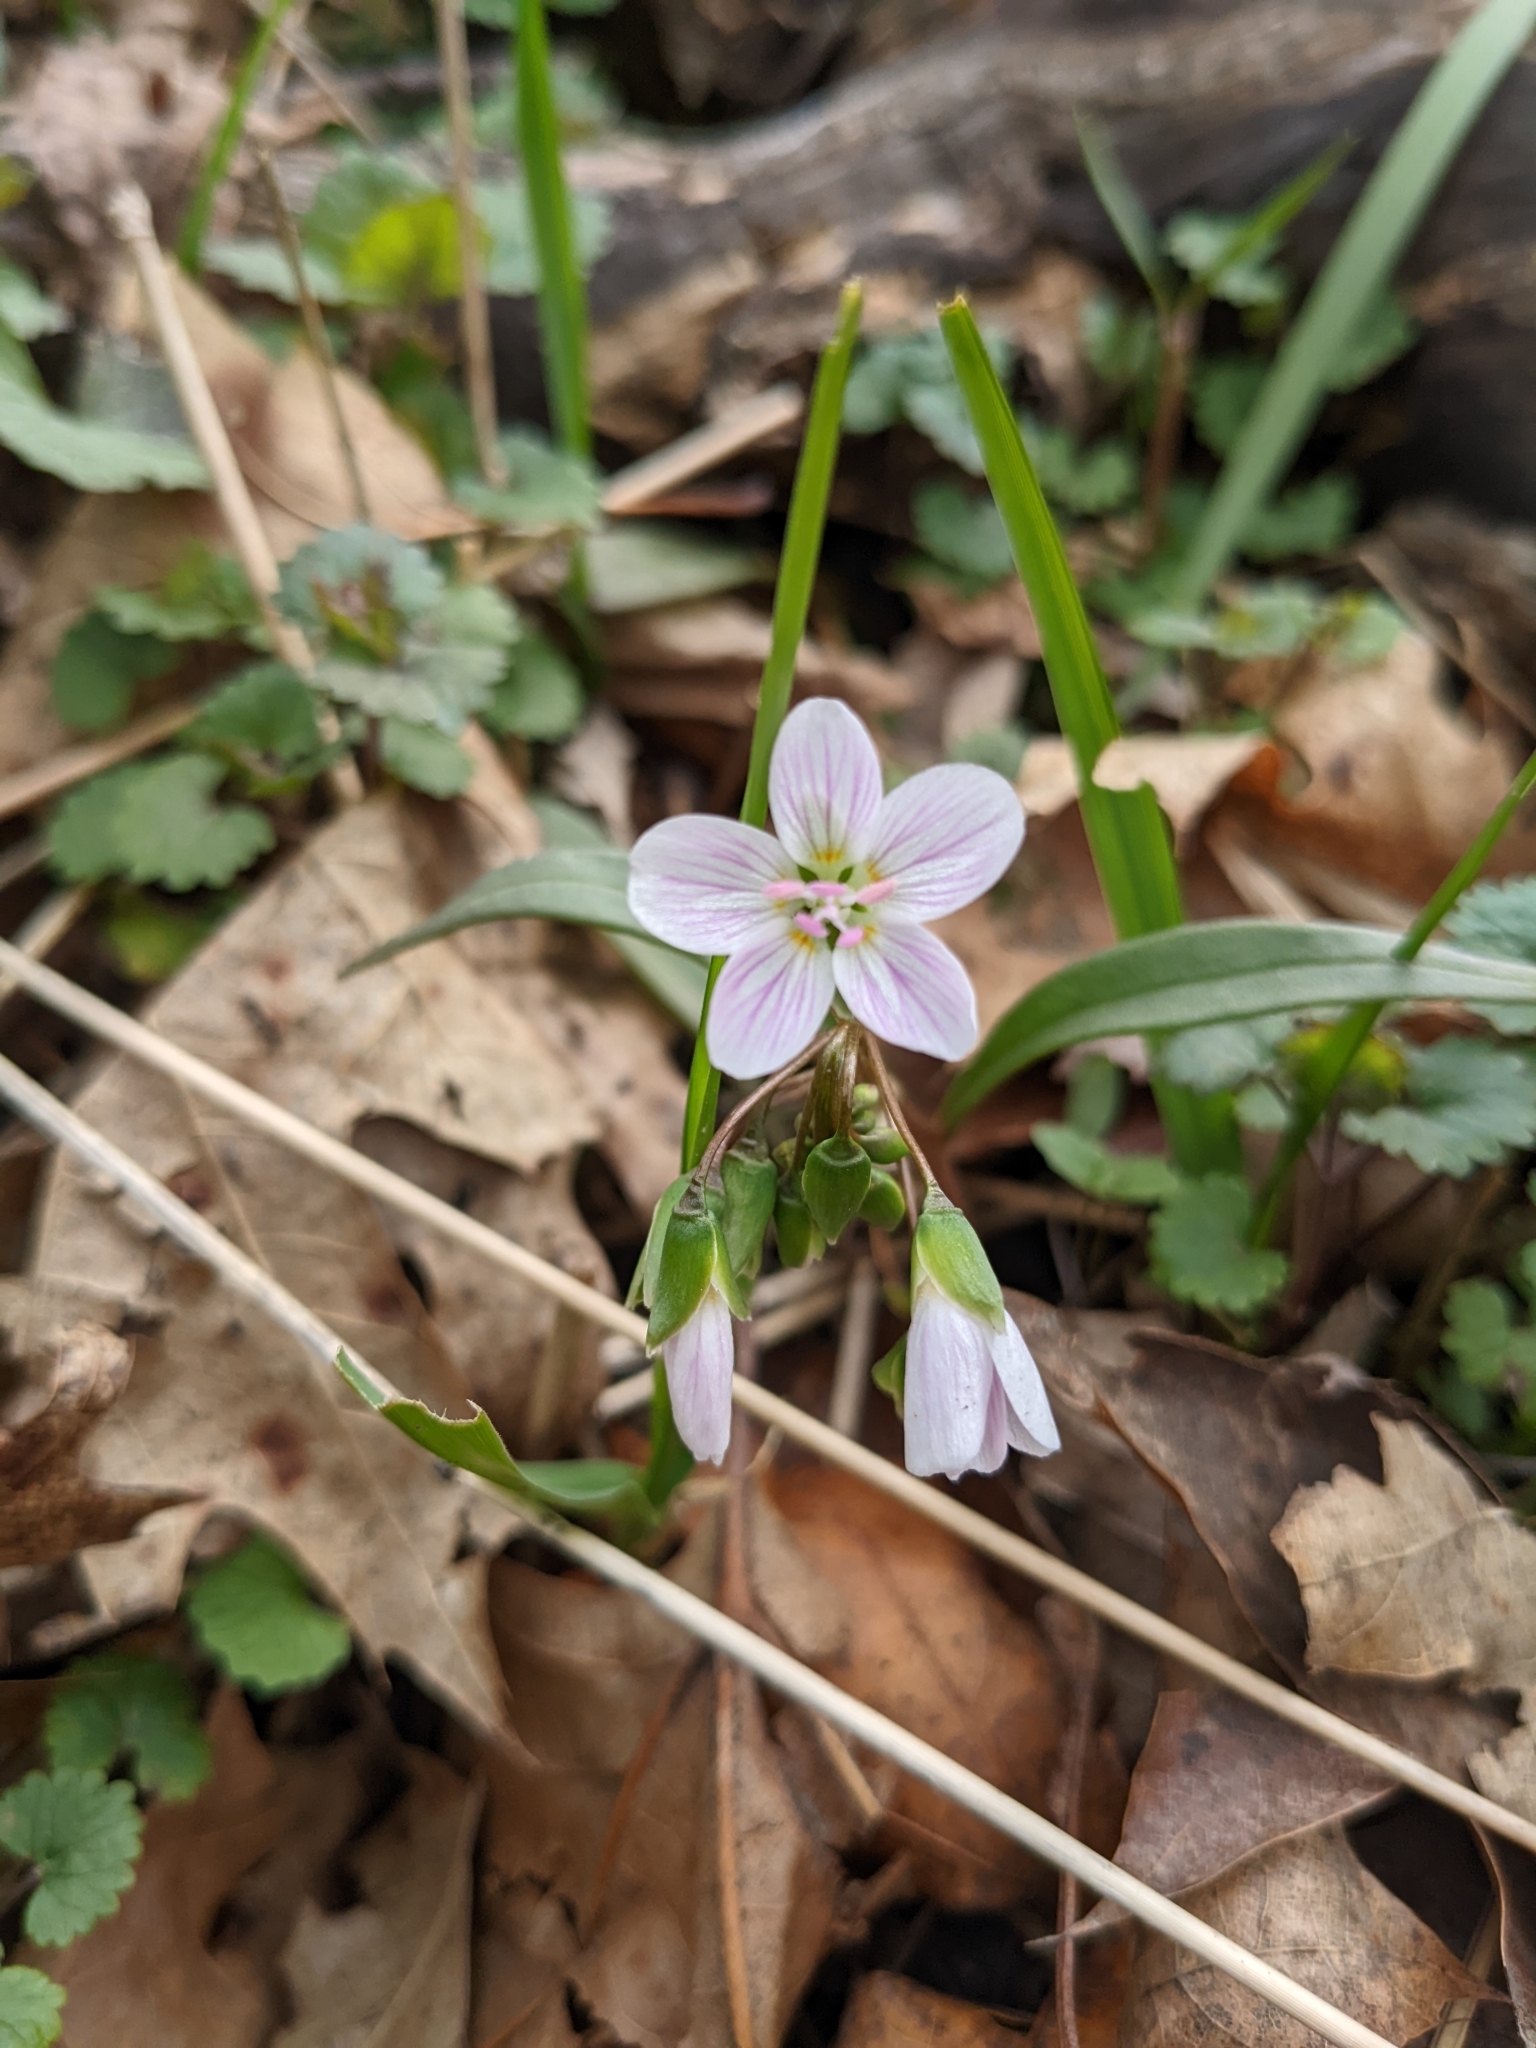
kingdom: Plantae
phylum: Tracheophyta
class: Magnoliopsida
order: Caryophyllales
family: Montiaceae
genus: Claytonia
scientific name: Claytonia virginica
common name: Virginia springbeauty
